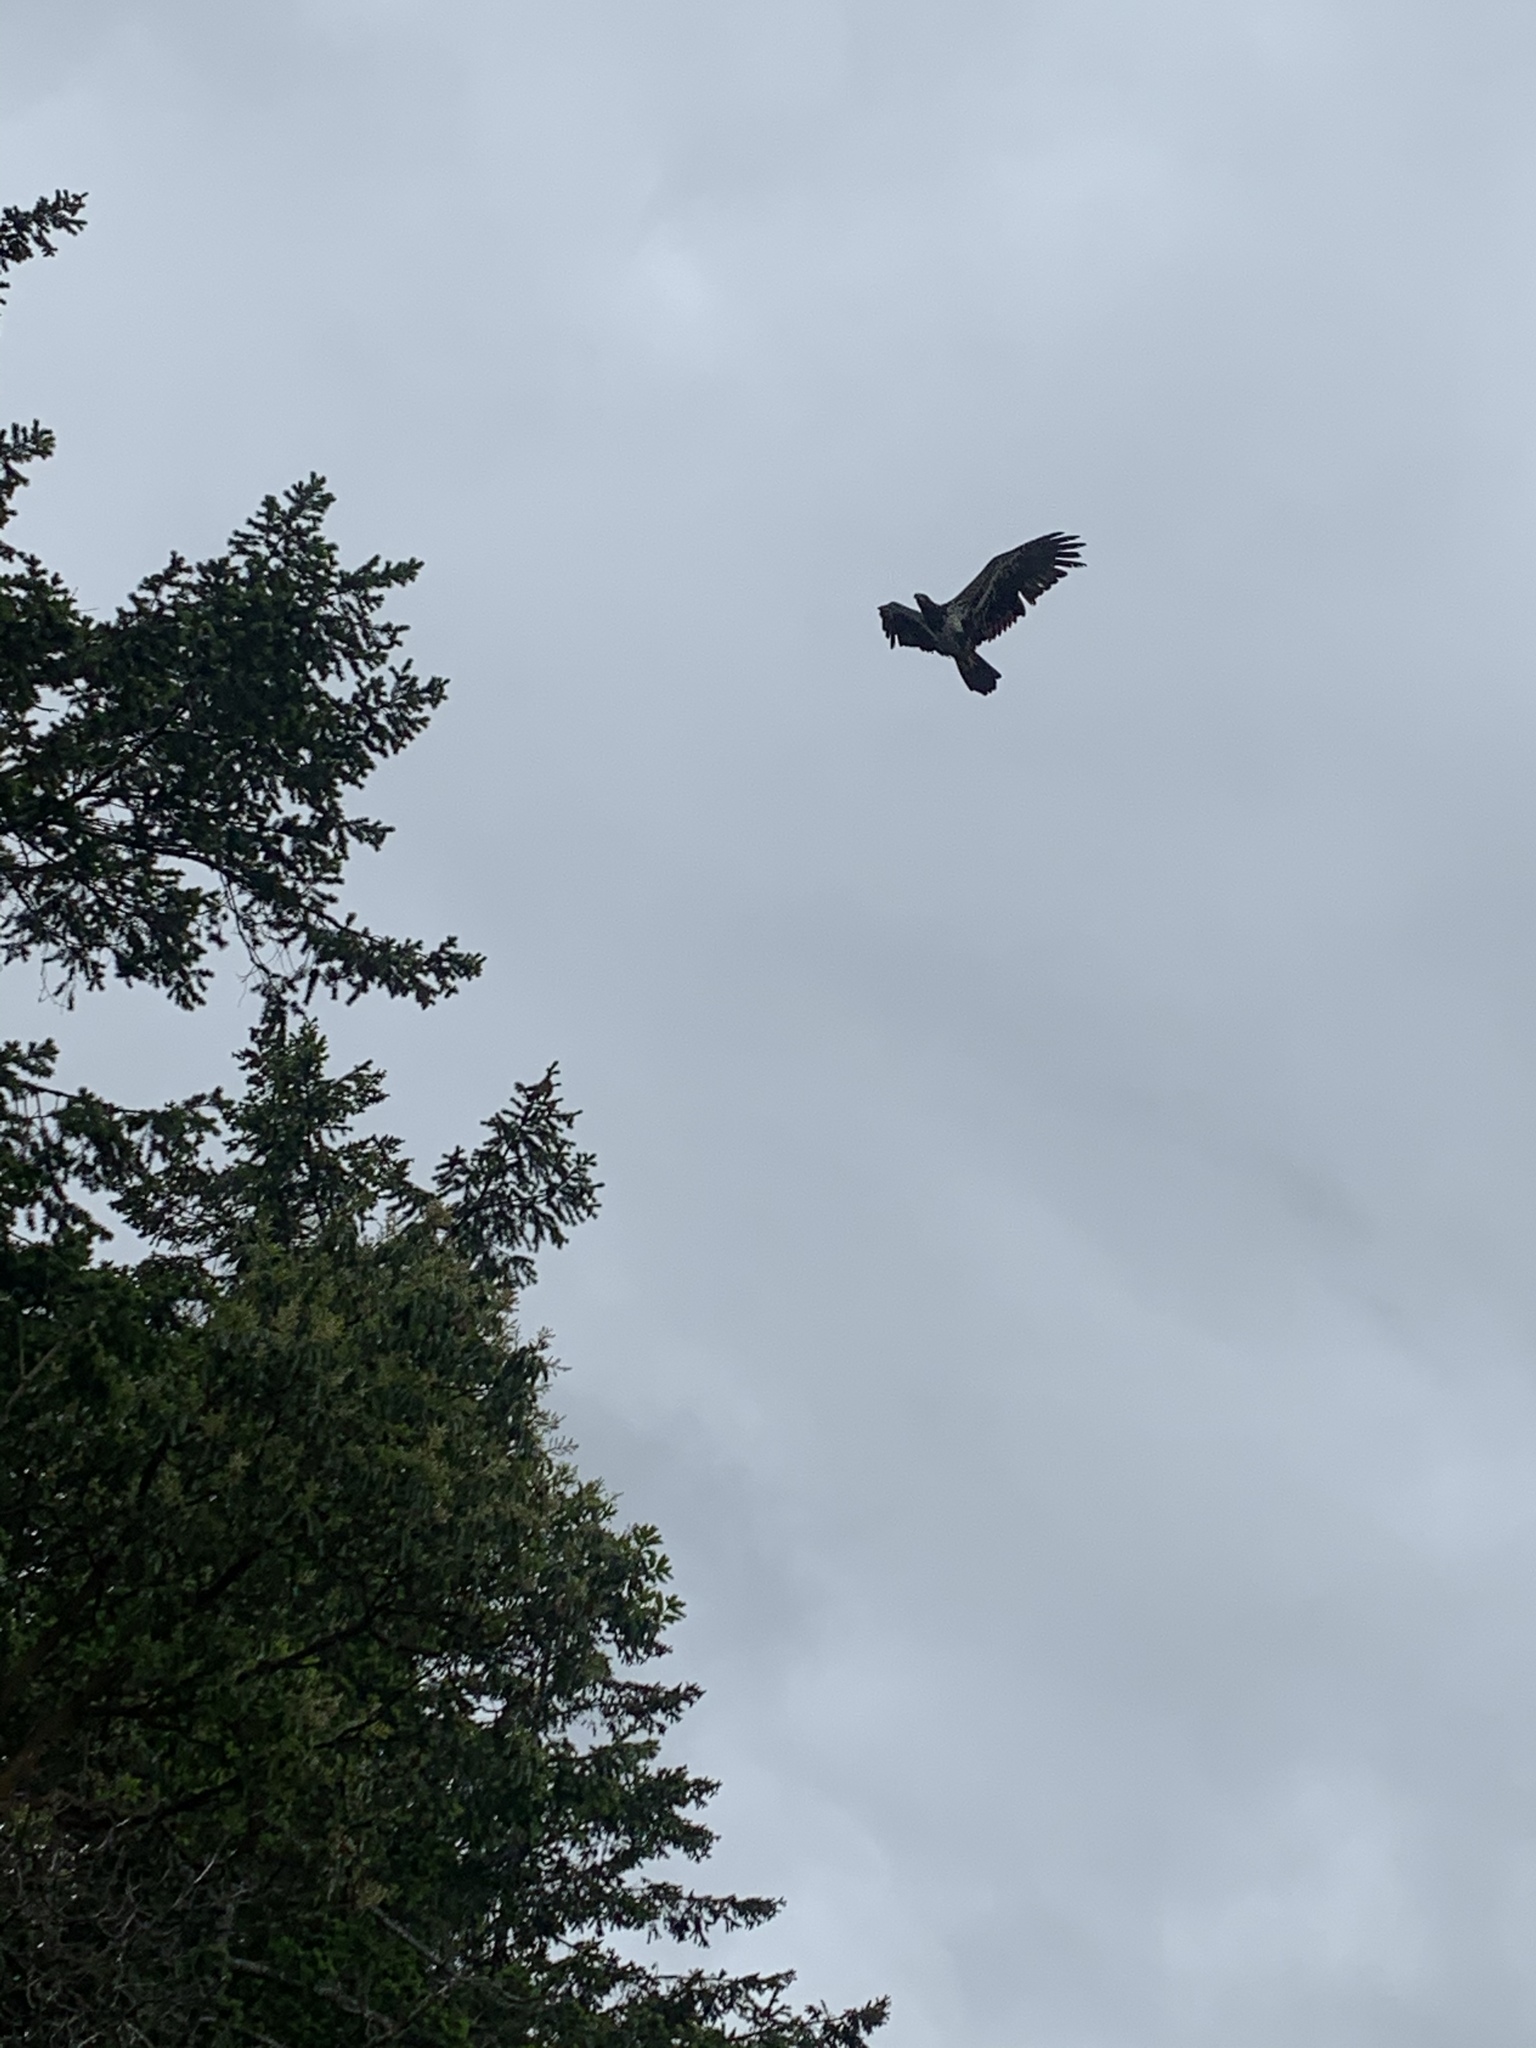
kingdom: Animalia
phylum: Chordata
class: Aves
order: Accipitriformes
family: Accipitridae
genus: Haliaeetus
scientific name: Haliaeetus leucocephalus
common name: Bald eagle
